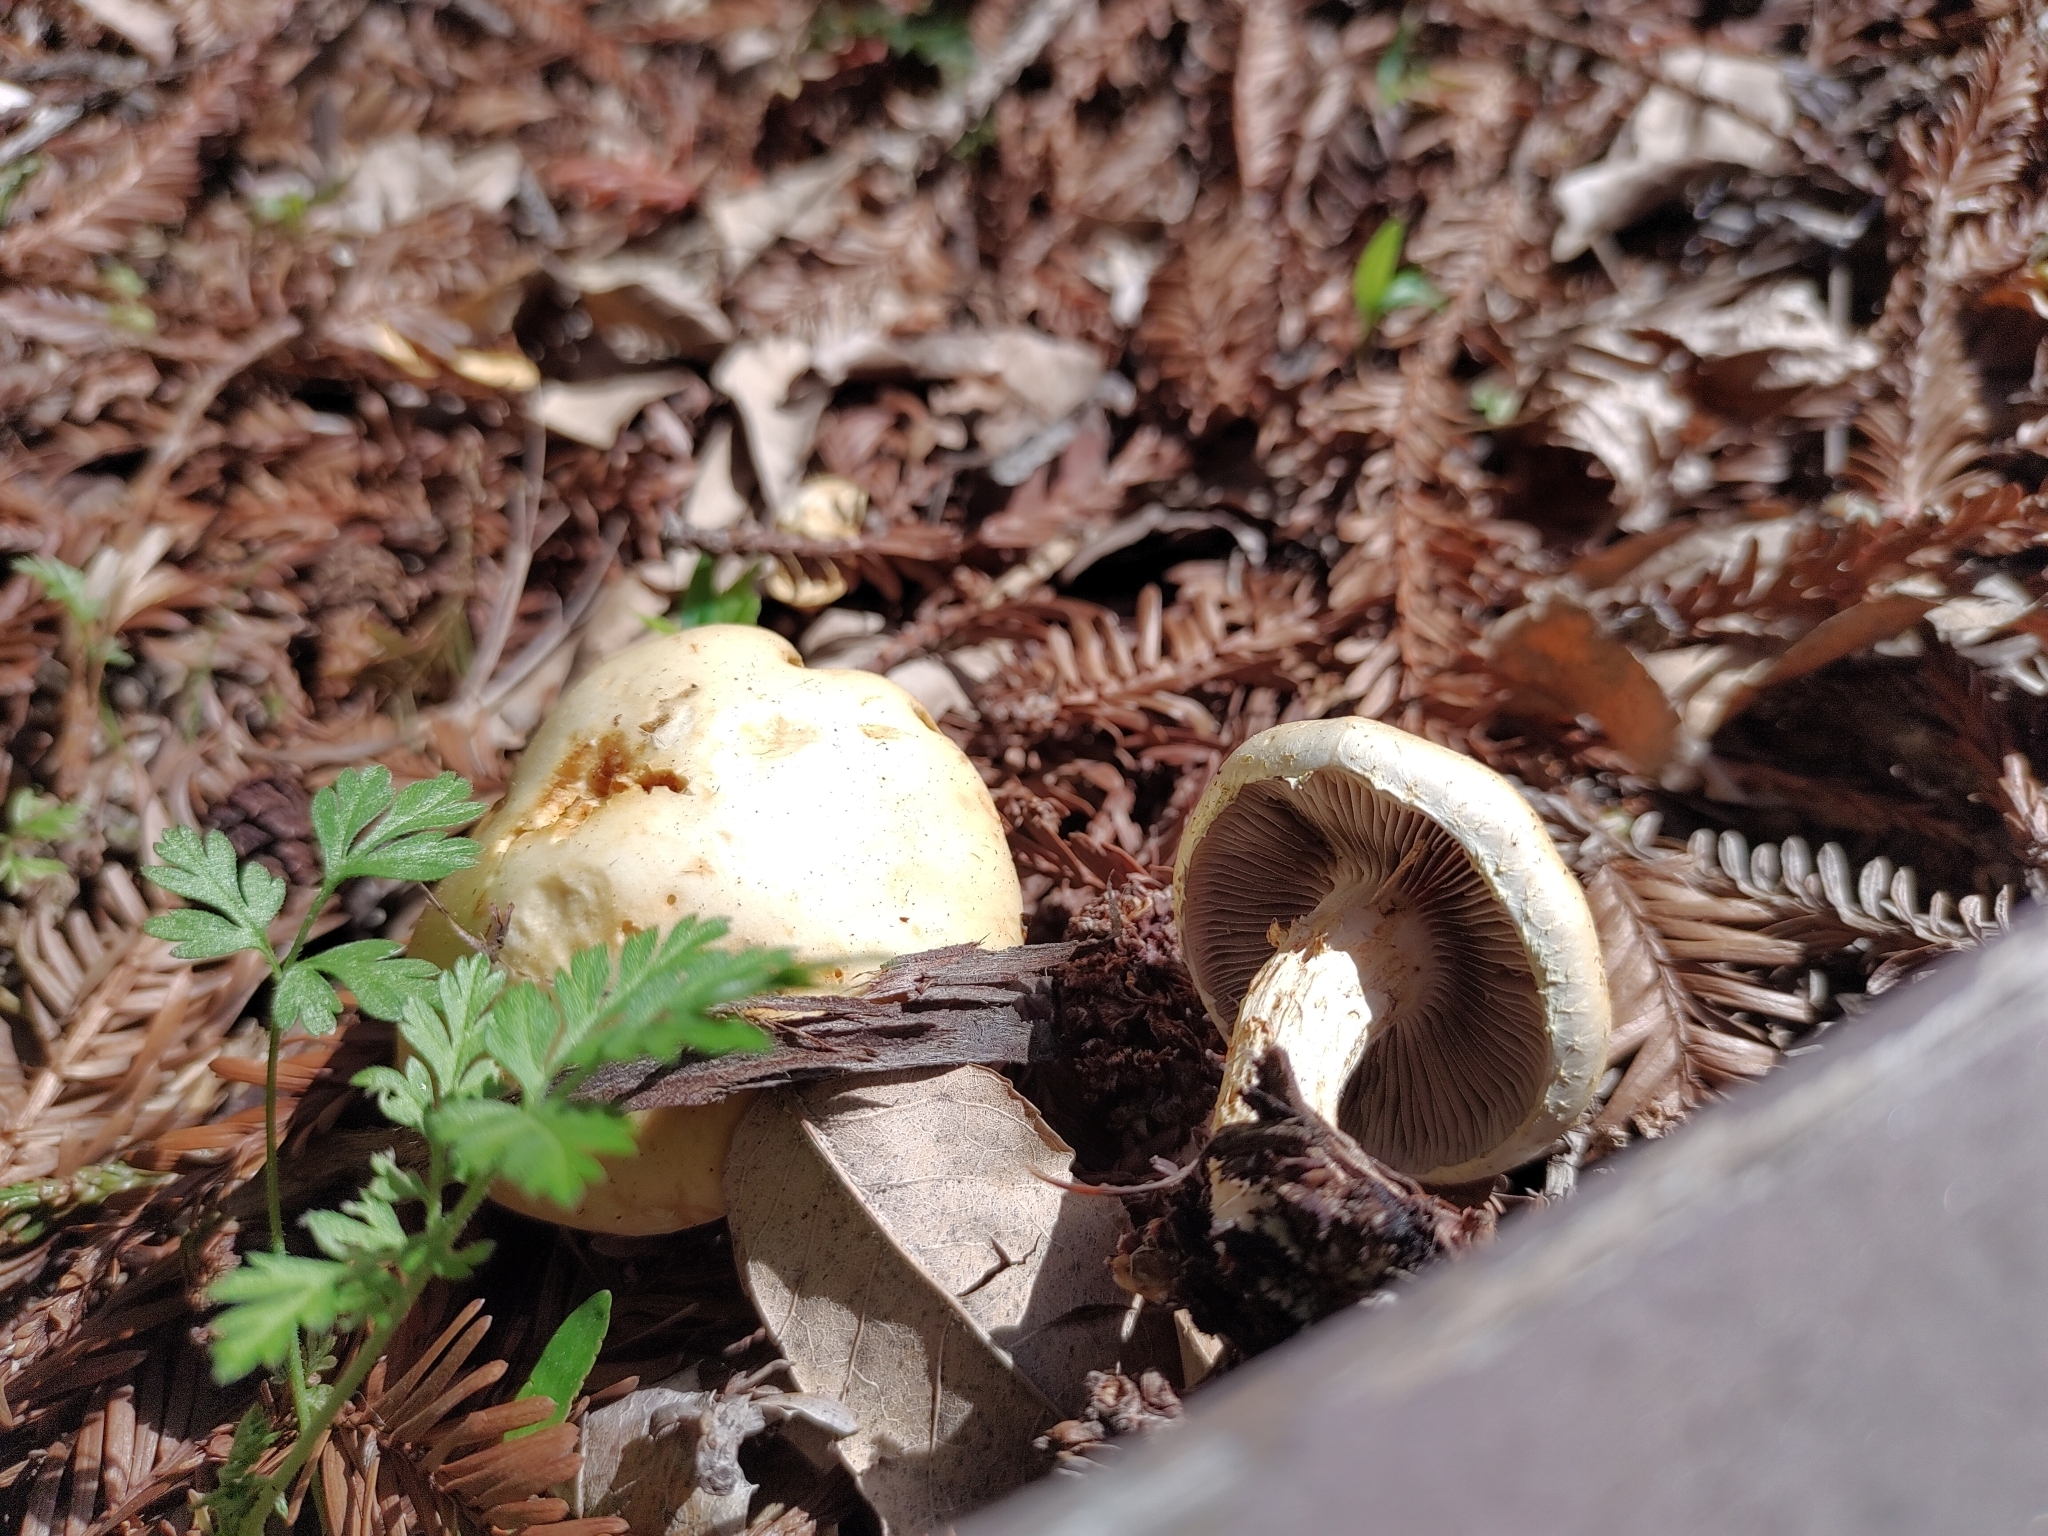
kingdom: Fungi
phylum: Basidiomycota
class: Agaricomycetes
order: Agaricales
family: Strophariaceae
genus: Leratiomyces
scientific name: Leratiomyces percevalii
